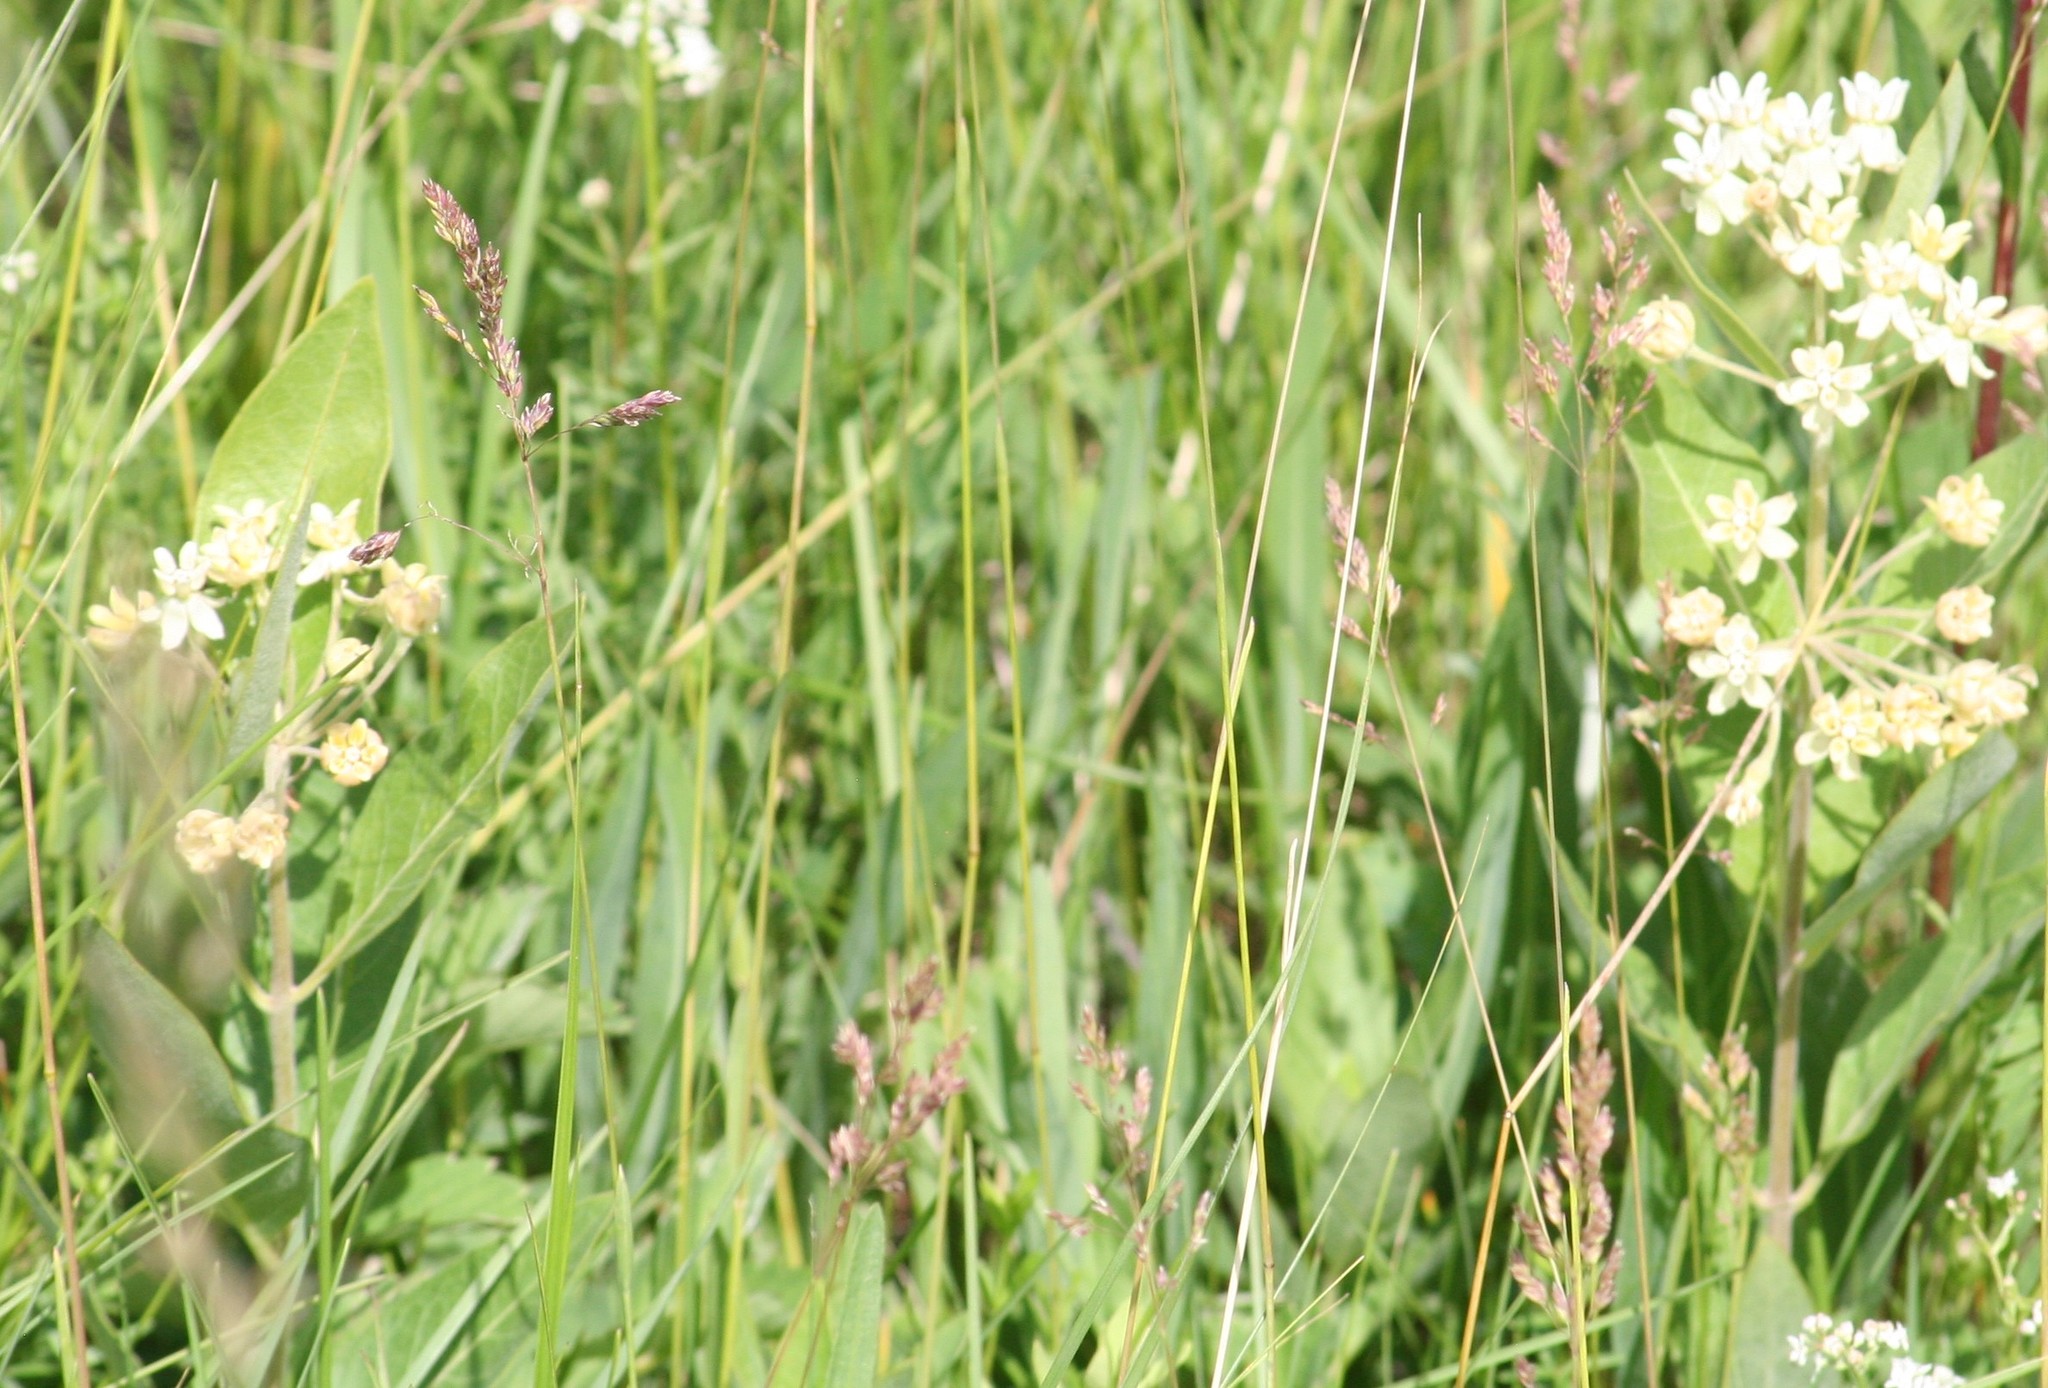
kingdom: Plantae
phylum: Tracheophyta
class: Magnoliopsida
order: Gentianales
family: Apocynaceae
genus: Asclepias
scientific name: Asclepias ovalifolia
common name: Dwarf milkweed
